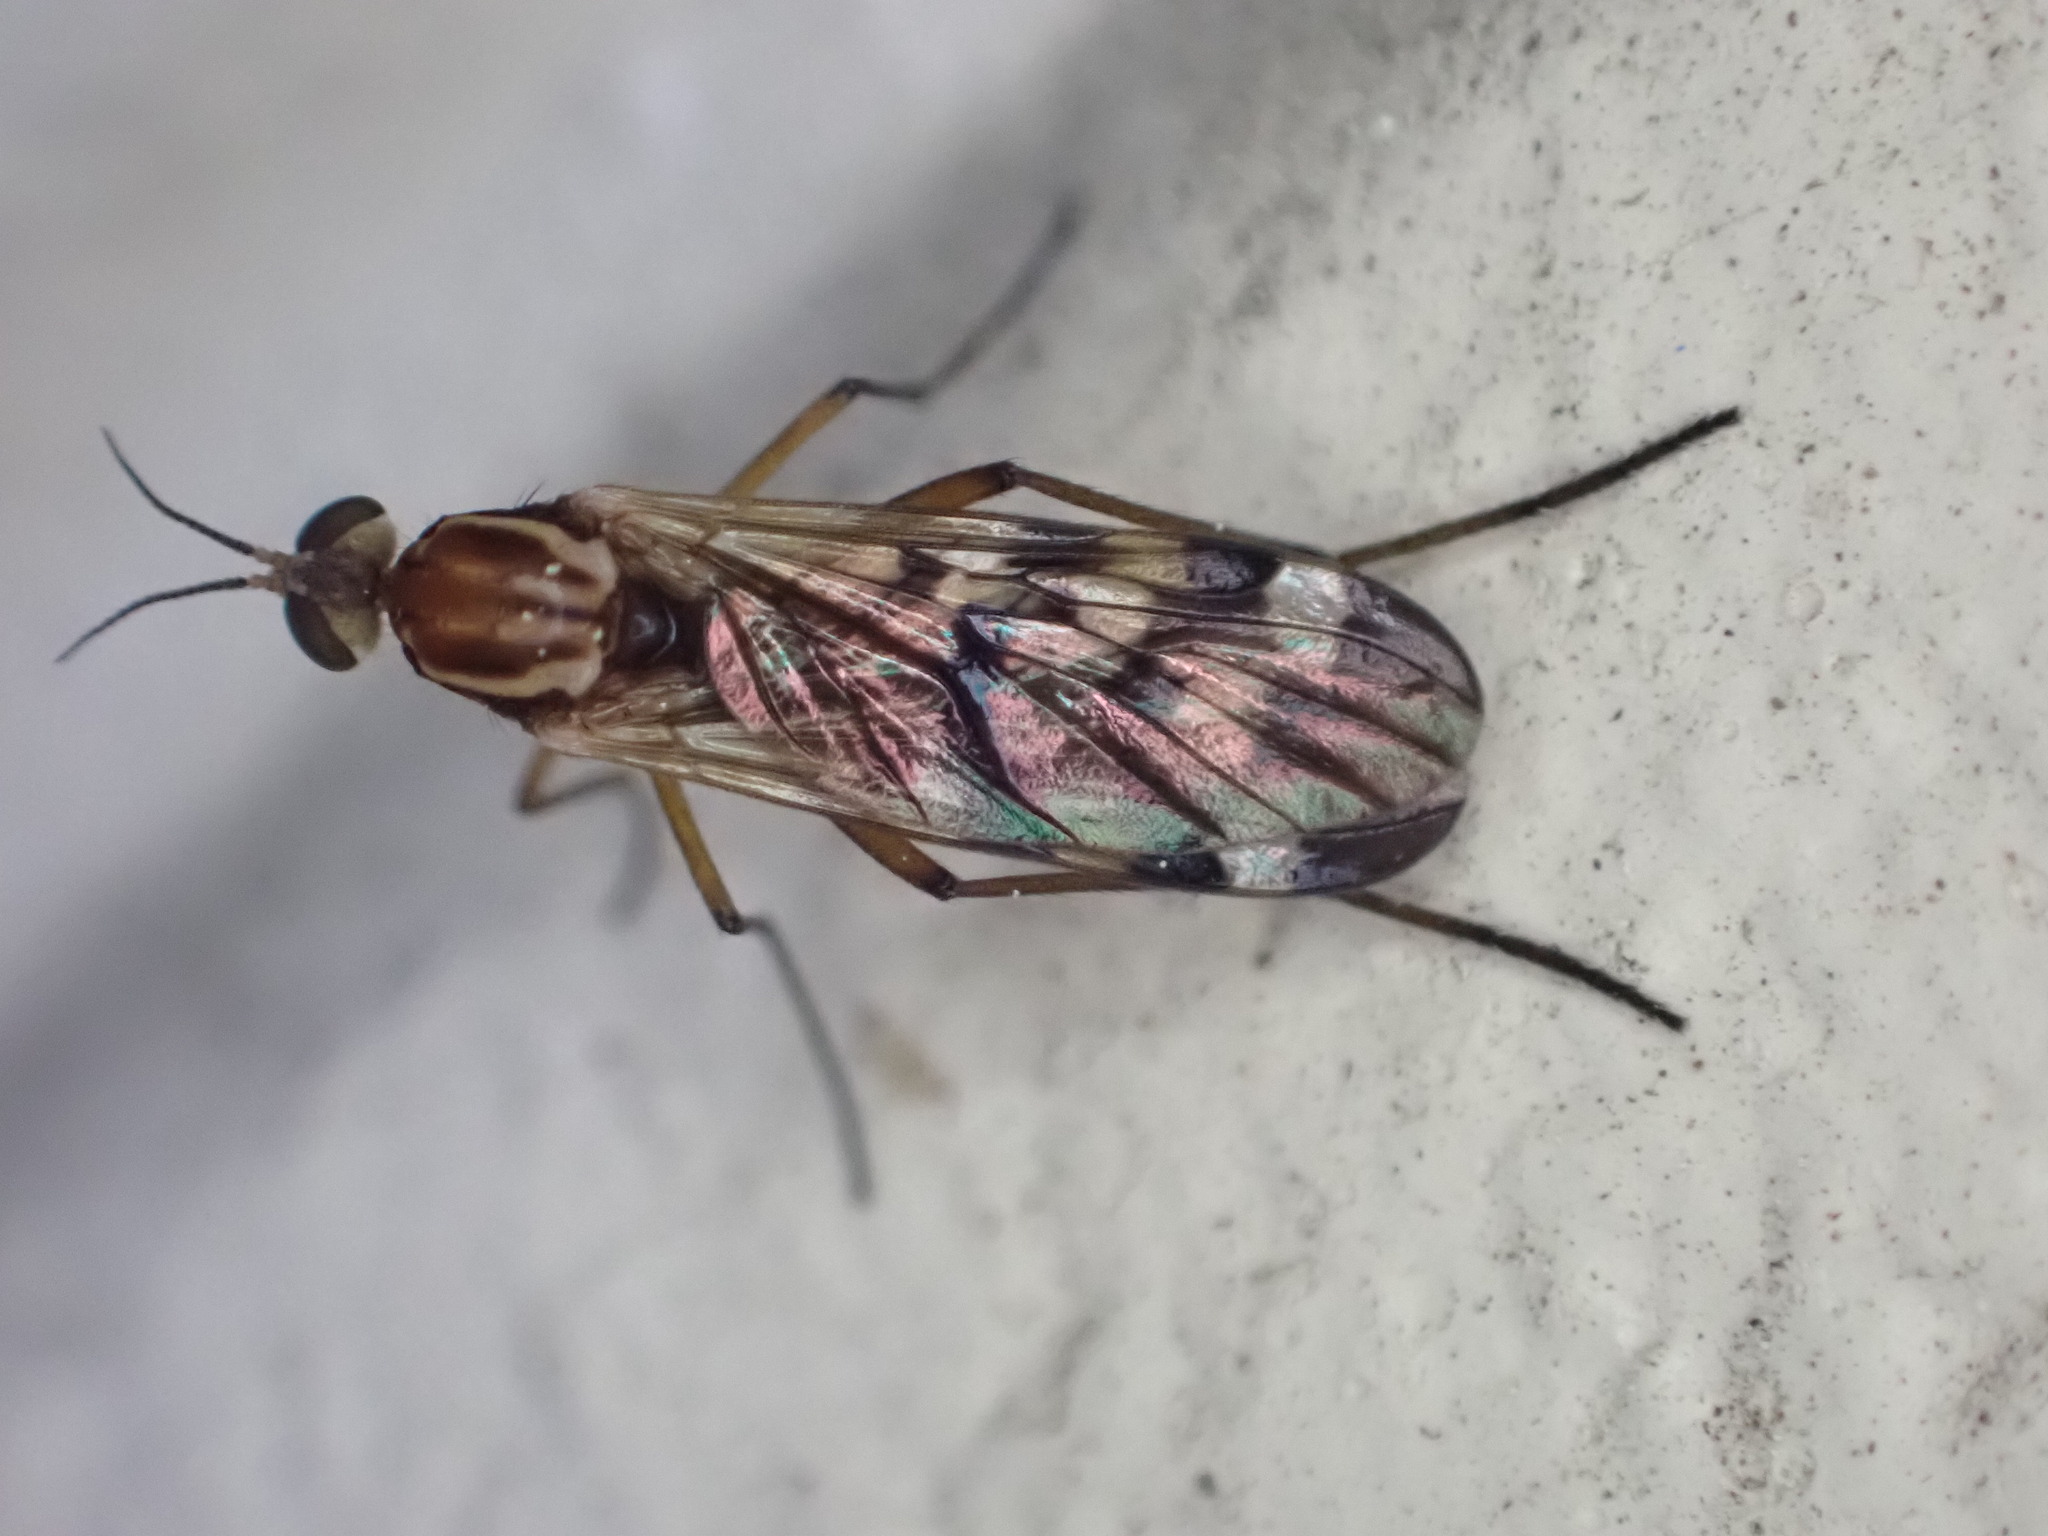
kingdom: Animalia
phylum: Arthropoda
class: Insecta
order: Diptera
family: Anisopodidae
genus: Sylvicola
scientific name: Sylvicola notatus
